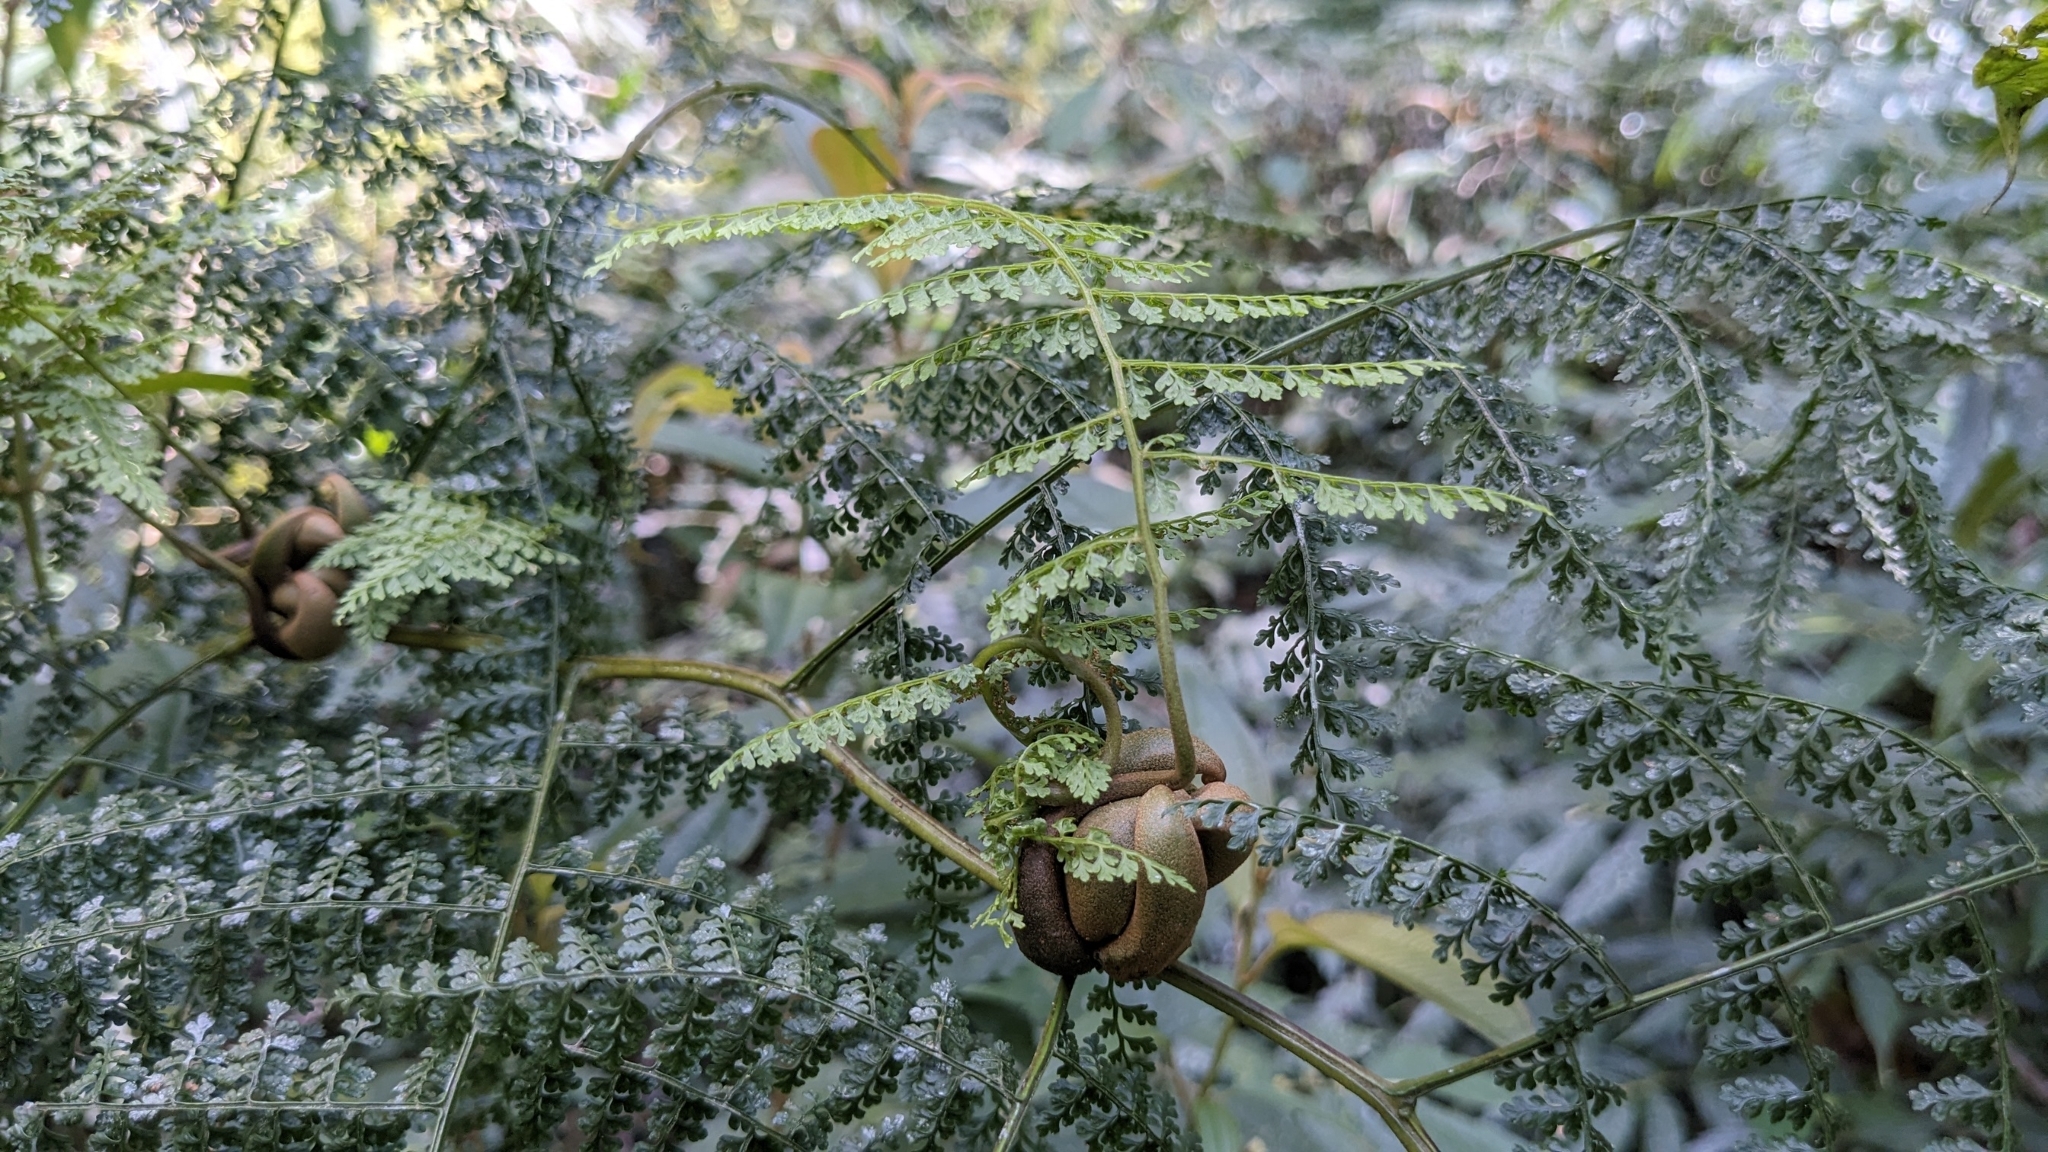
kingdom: Plantae
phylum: Tracheophyta
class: Polypodiopsida
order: Polypodiales
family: Dennstaedtiaceae
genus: Monachosorum
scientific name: Monachosorum henryi
